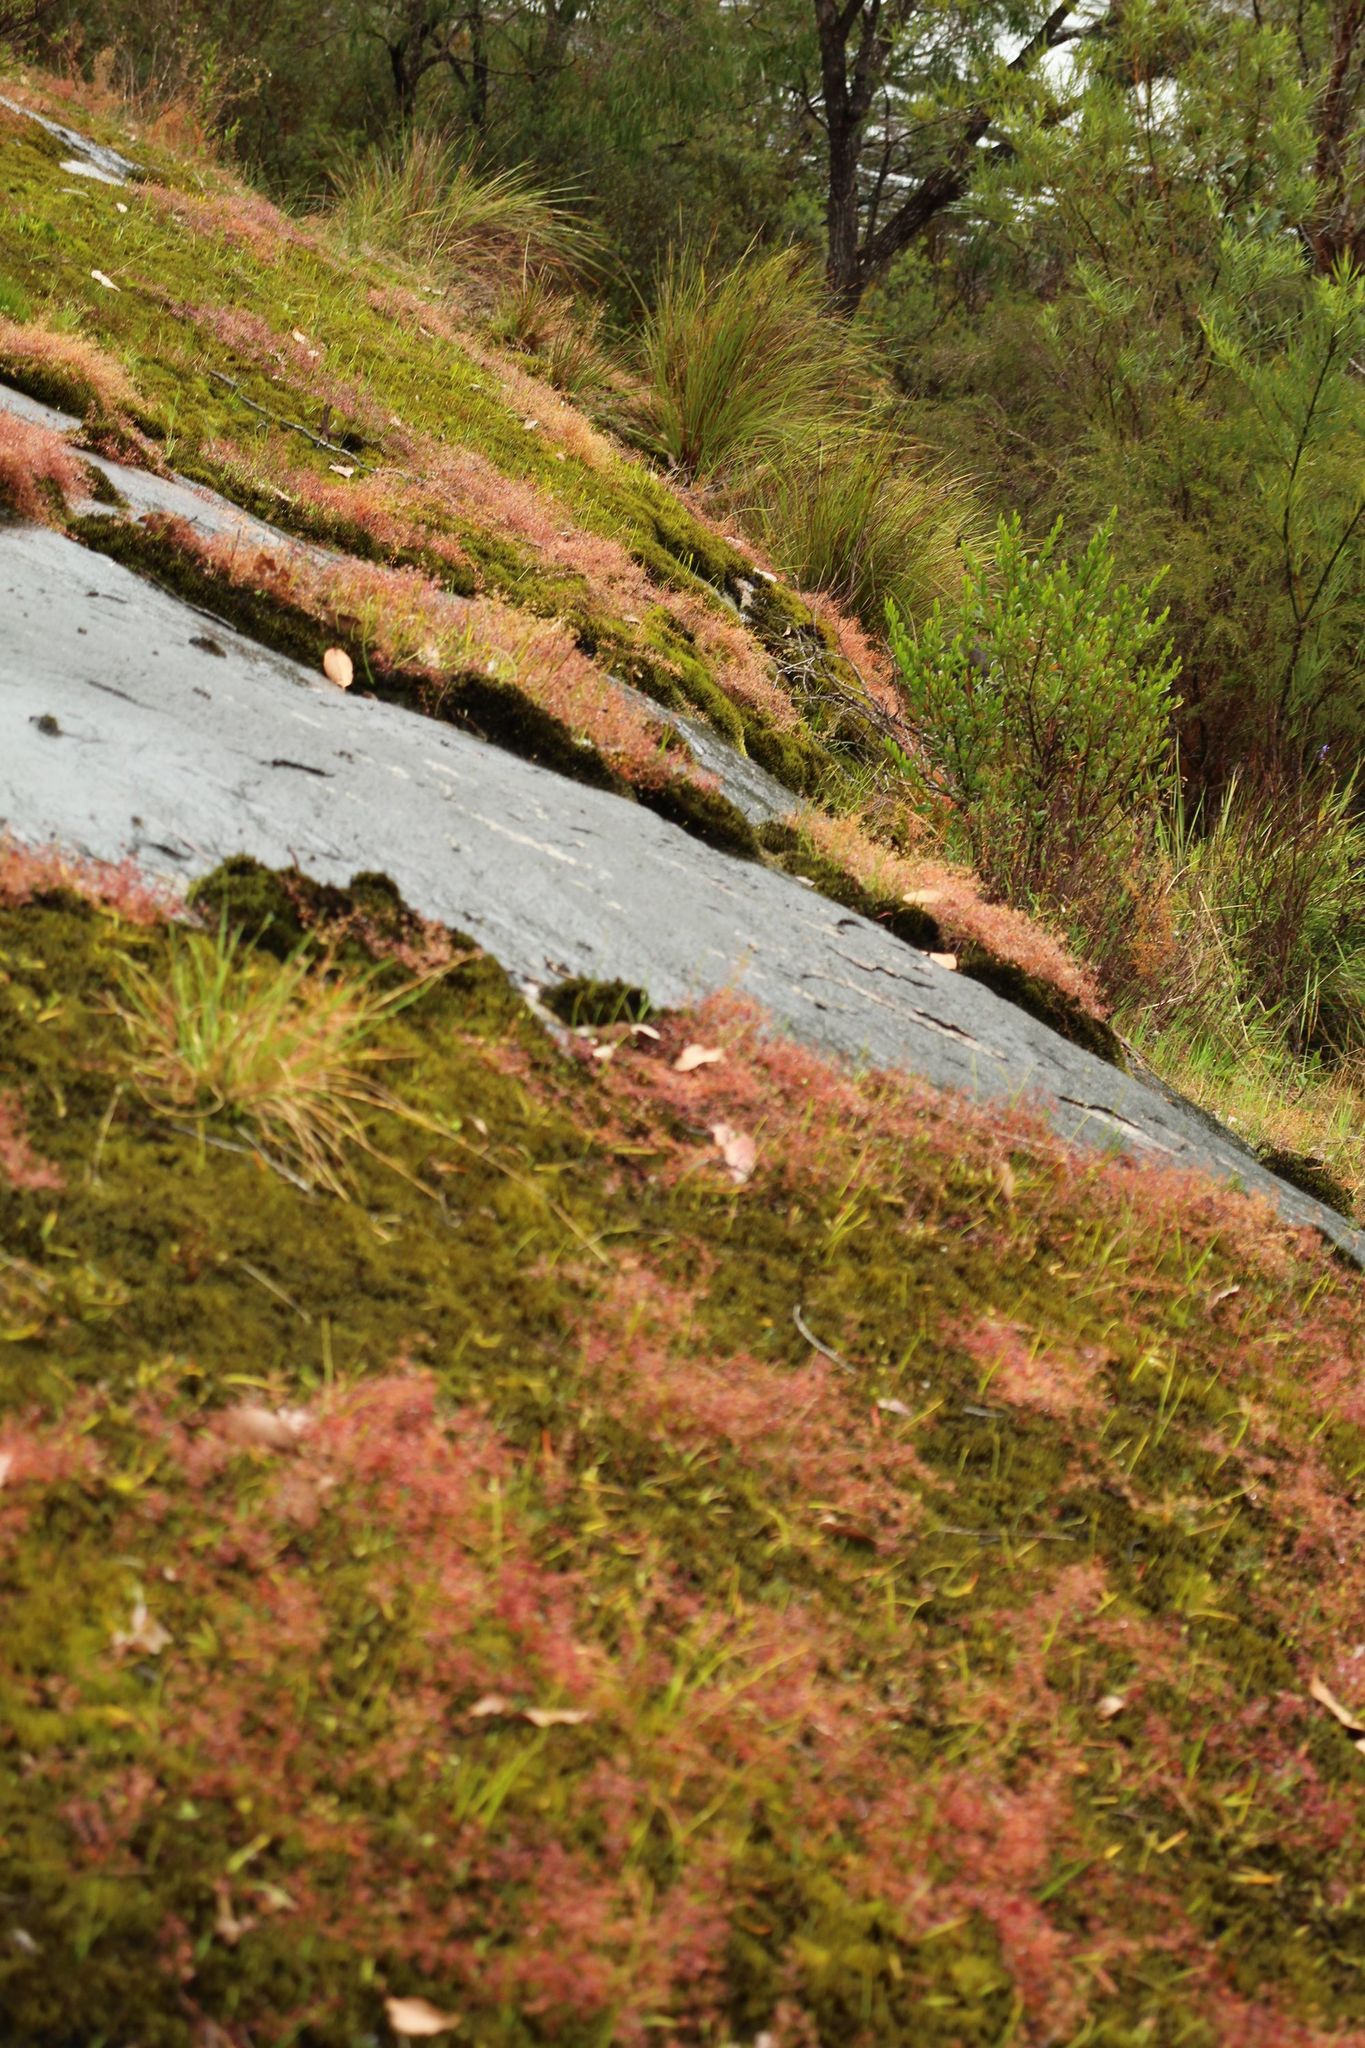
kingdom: Plantae
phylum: Tracheophyta
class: Magnoliopsida
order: Caryophyllales
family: Droseraceae
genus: Drosera
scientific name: Drosera macrantha
